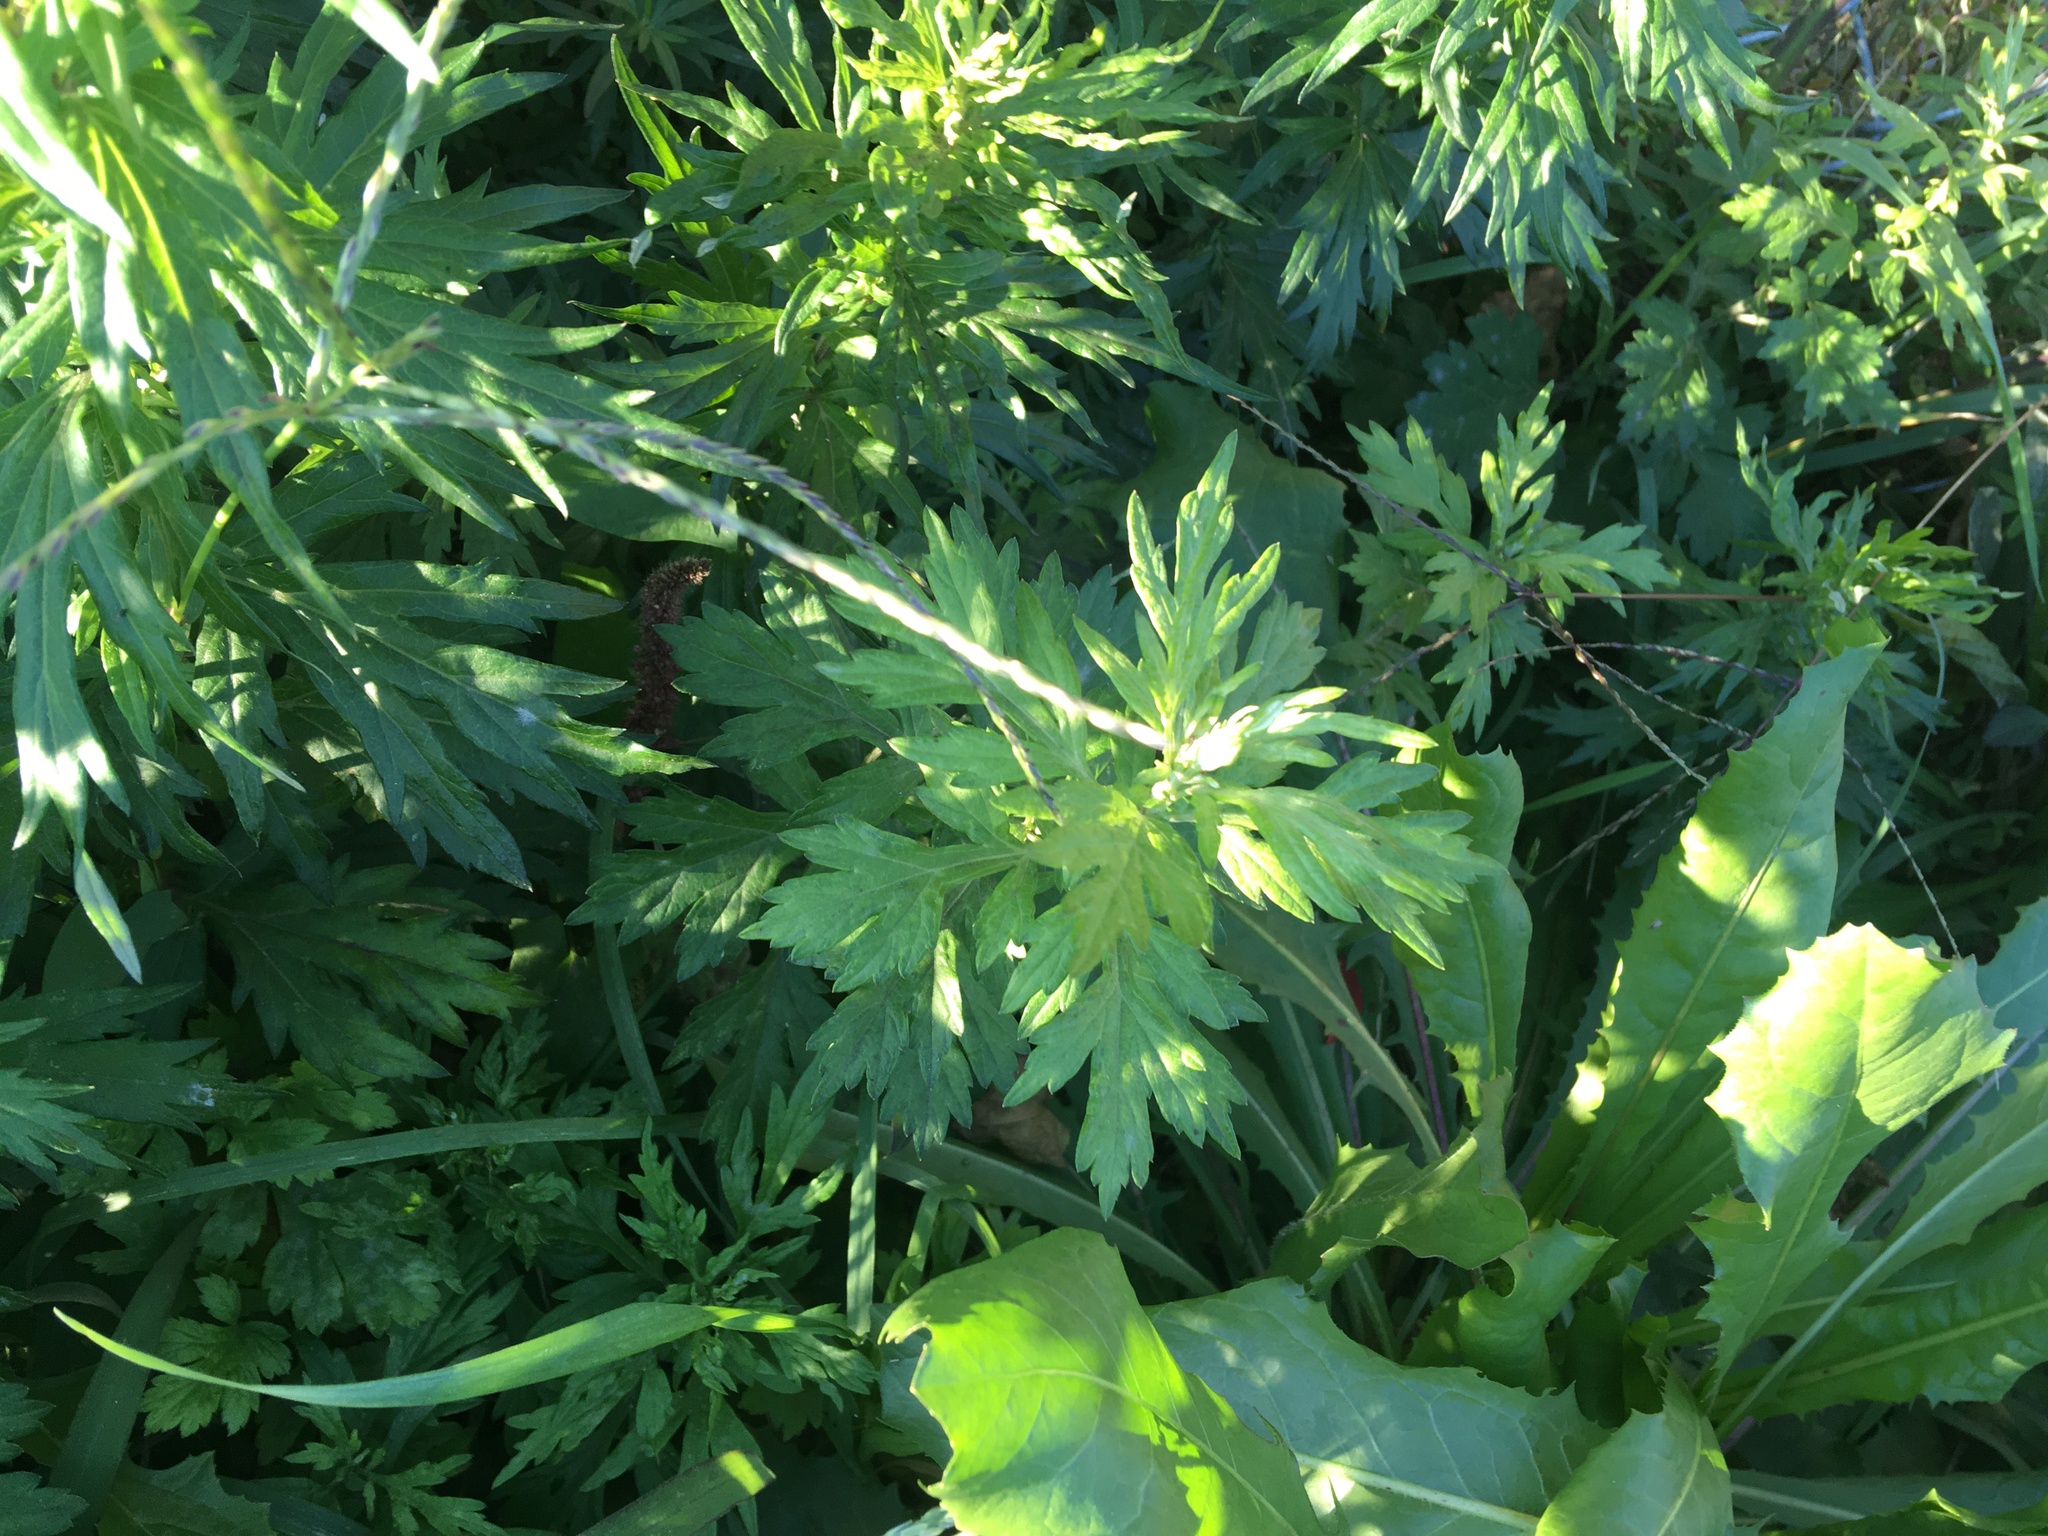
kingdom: Plantae
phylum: Tracheophyta
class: Magnoliopsida
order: Asterales
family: Asteraceae
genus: Artemisia
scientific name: Artemisia vulgaris
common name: Mugwort
